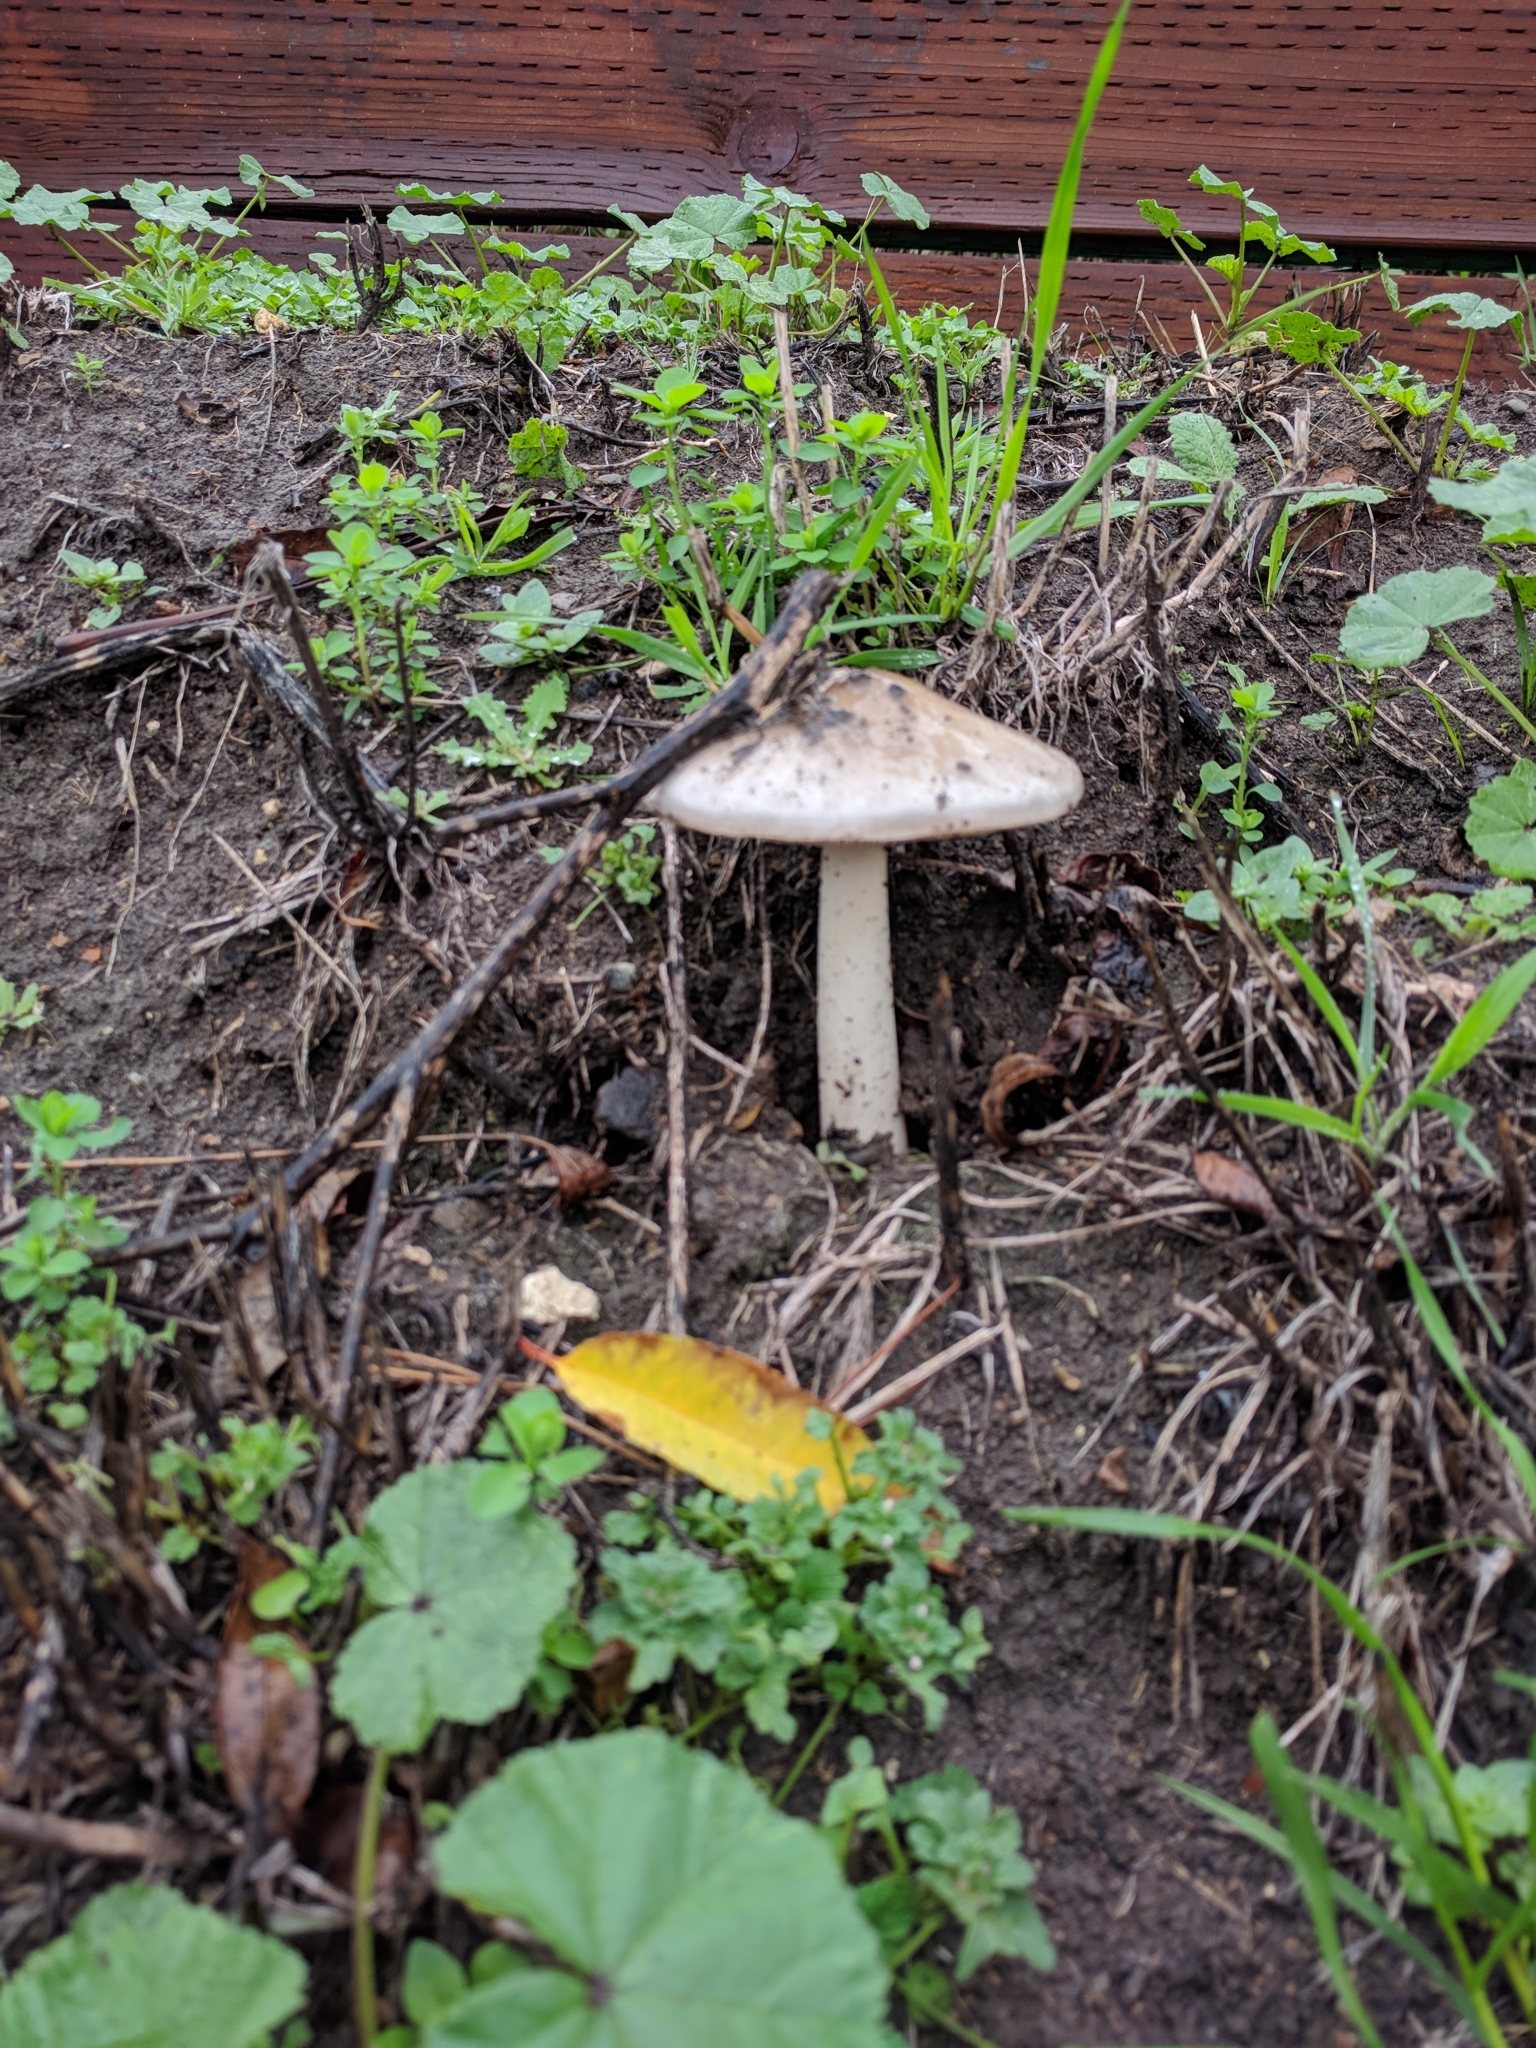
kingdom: Fungi
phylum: Basidiomycota
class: Agaricomycetes
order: Agaricales
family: Pluteaceae
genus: Volvopluteus
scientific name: Volvopluteus gloiocephalus
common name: Stubble rosegill
